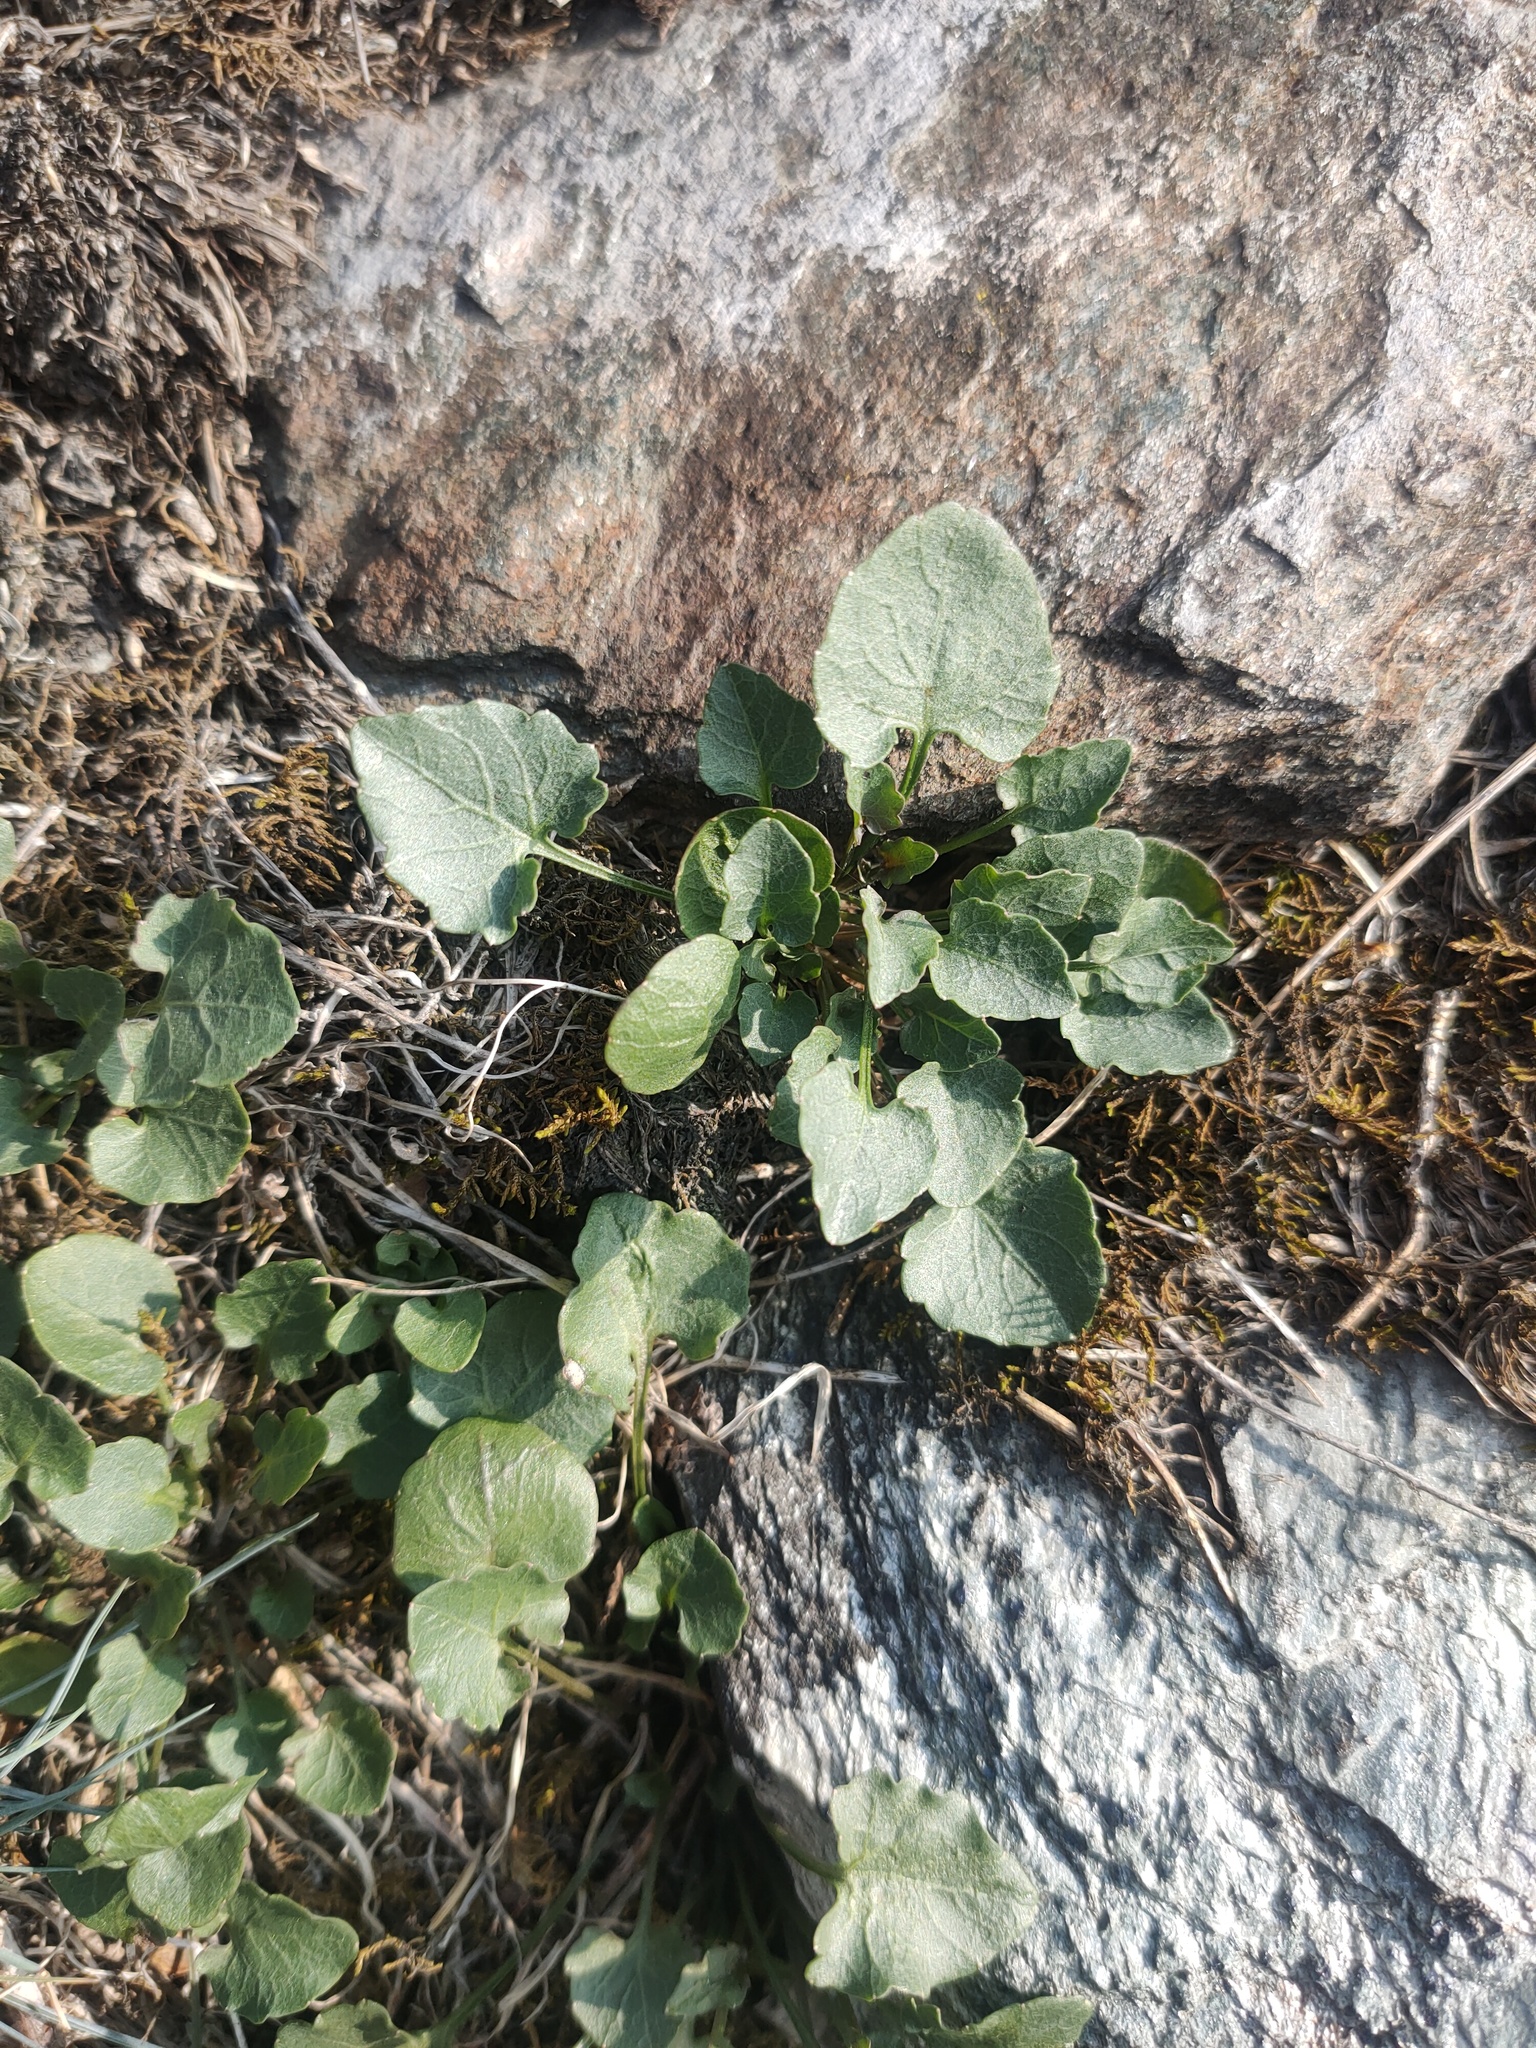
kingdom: Plantae
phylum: Tracheophyta
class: Magnoliopsida
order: Asterales
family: Campanulaceae
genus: Campanula
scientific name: Campanula rotundifolia
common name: Harebell
